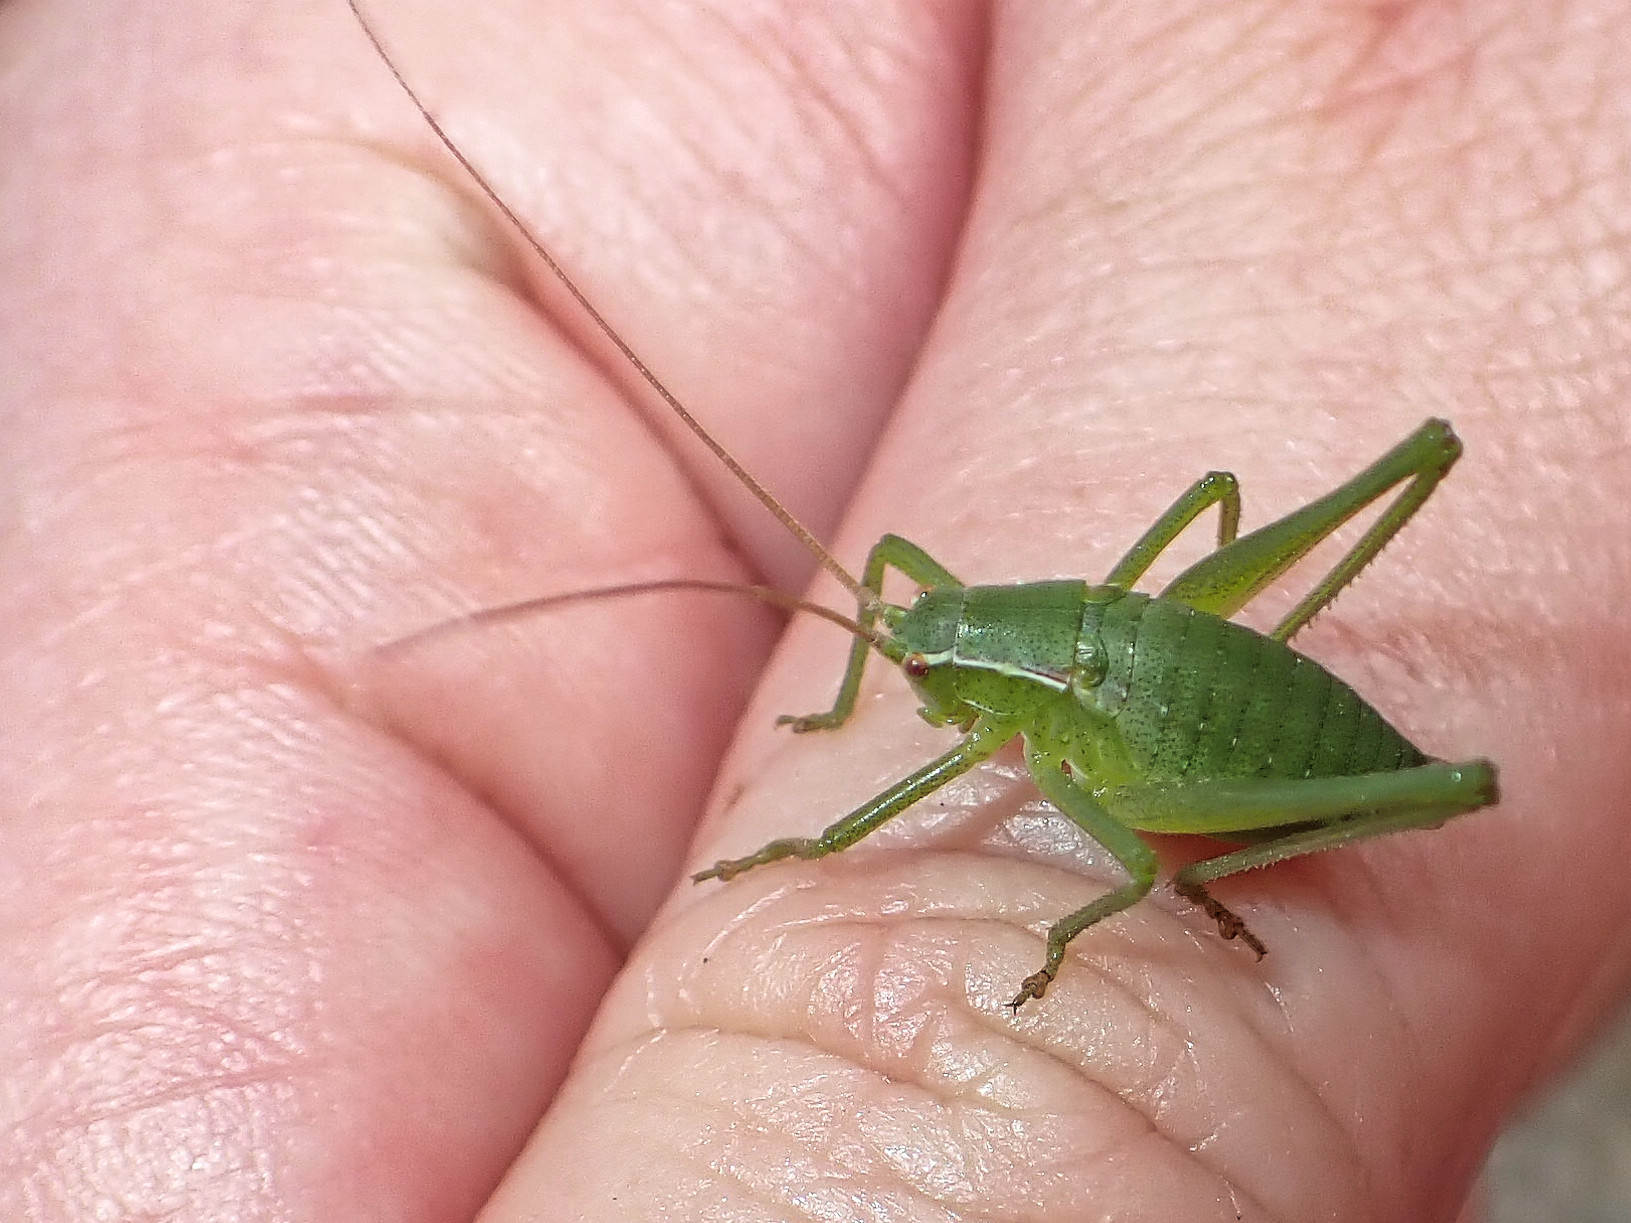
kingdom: Animalia
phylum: Arthropoda
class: Insecta
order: Orthoptera
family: Tettigoniidae
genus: Isophya
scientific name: Isophya pyrenaea
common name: Pyrenean plump bush-cricket
